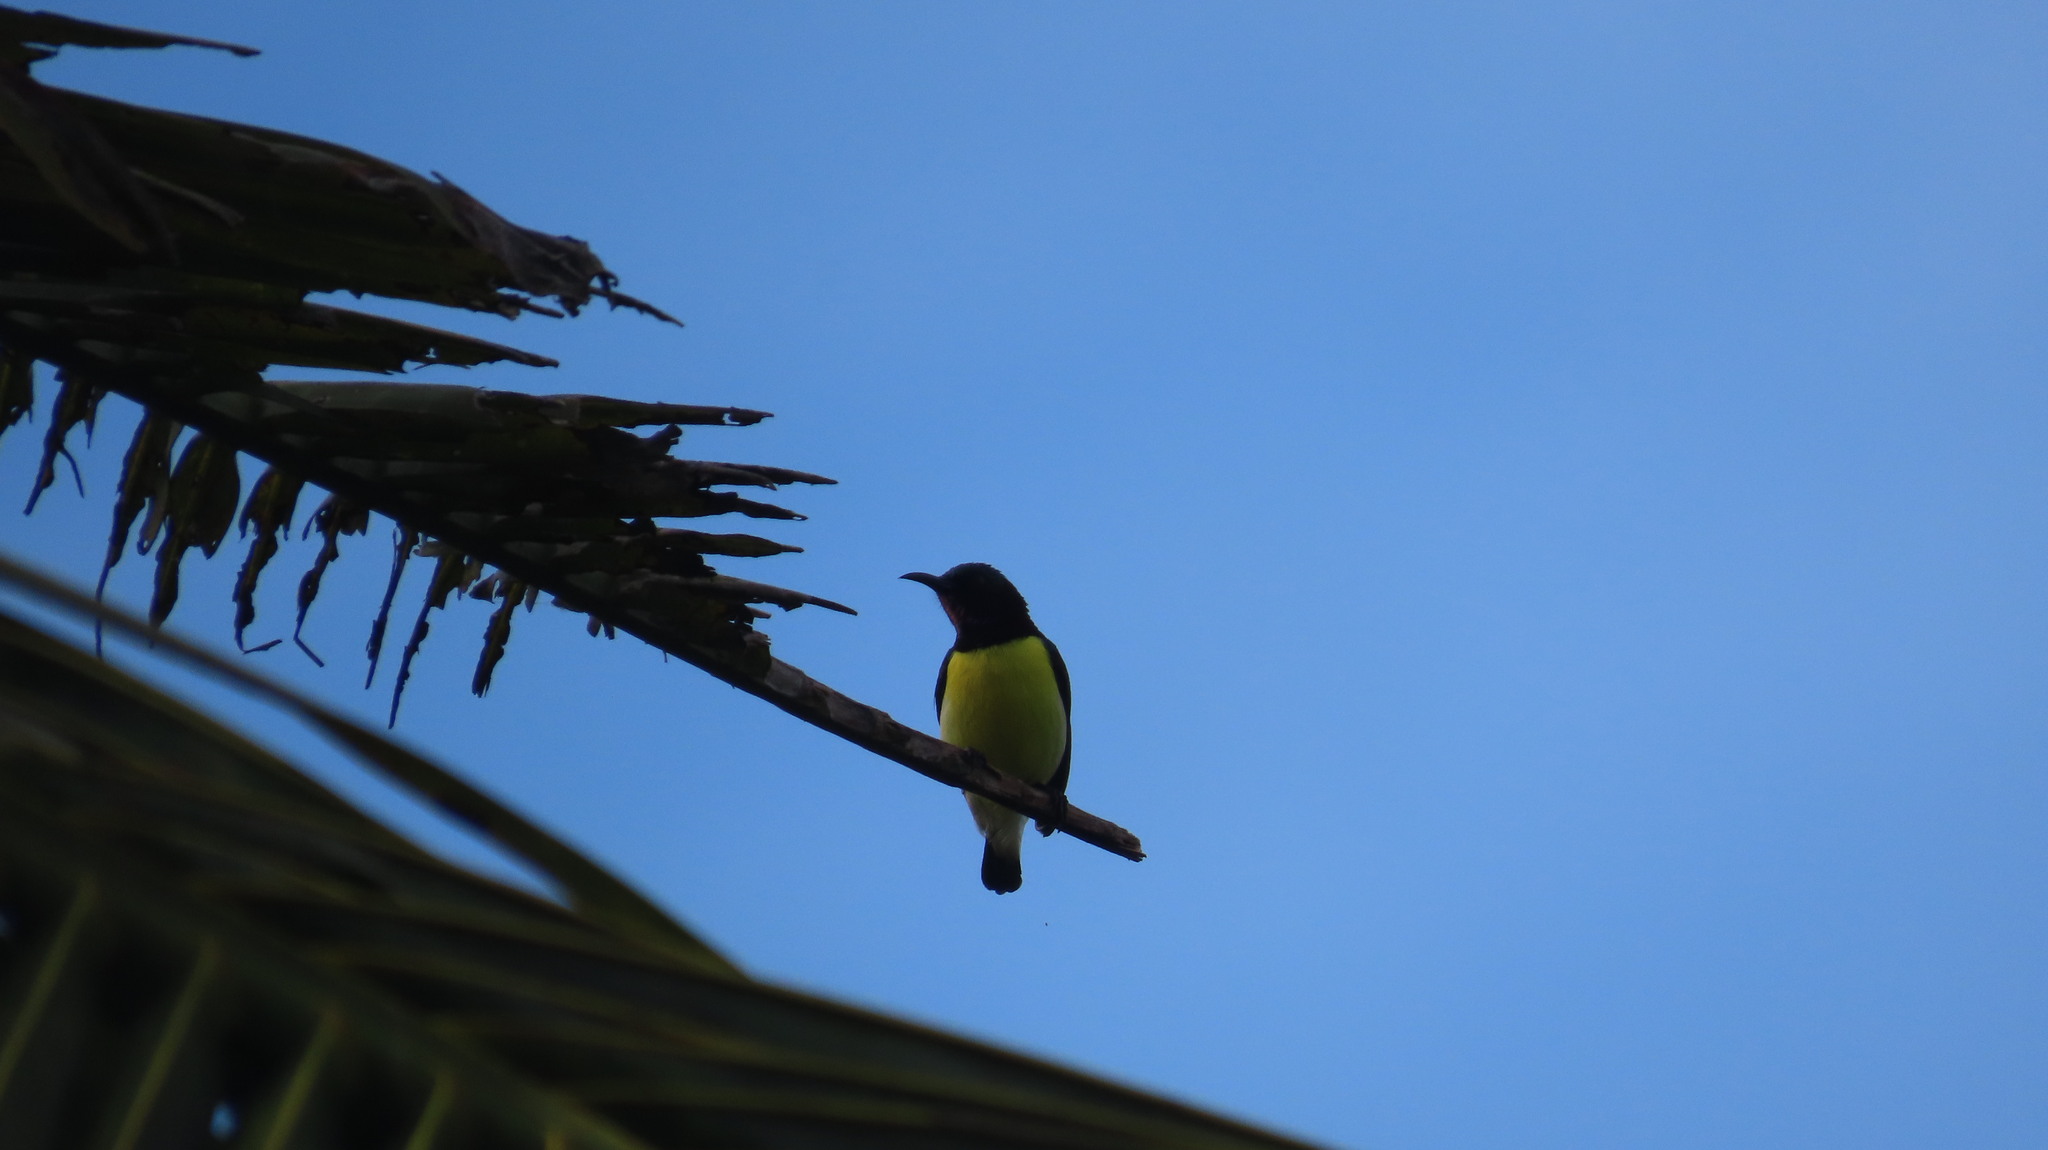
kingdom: Animalia
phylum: Chordata
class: Aves
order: Passeriformes
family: Nectariniidae
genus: Leptocoma
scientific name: Leptocoma zeylonica
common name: Purple-rumped sunbird
